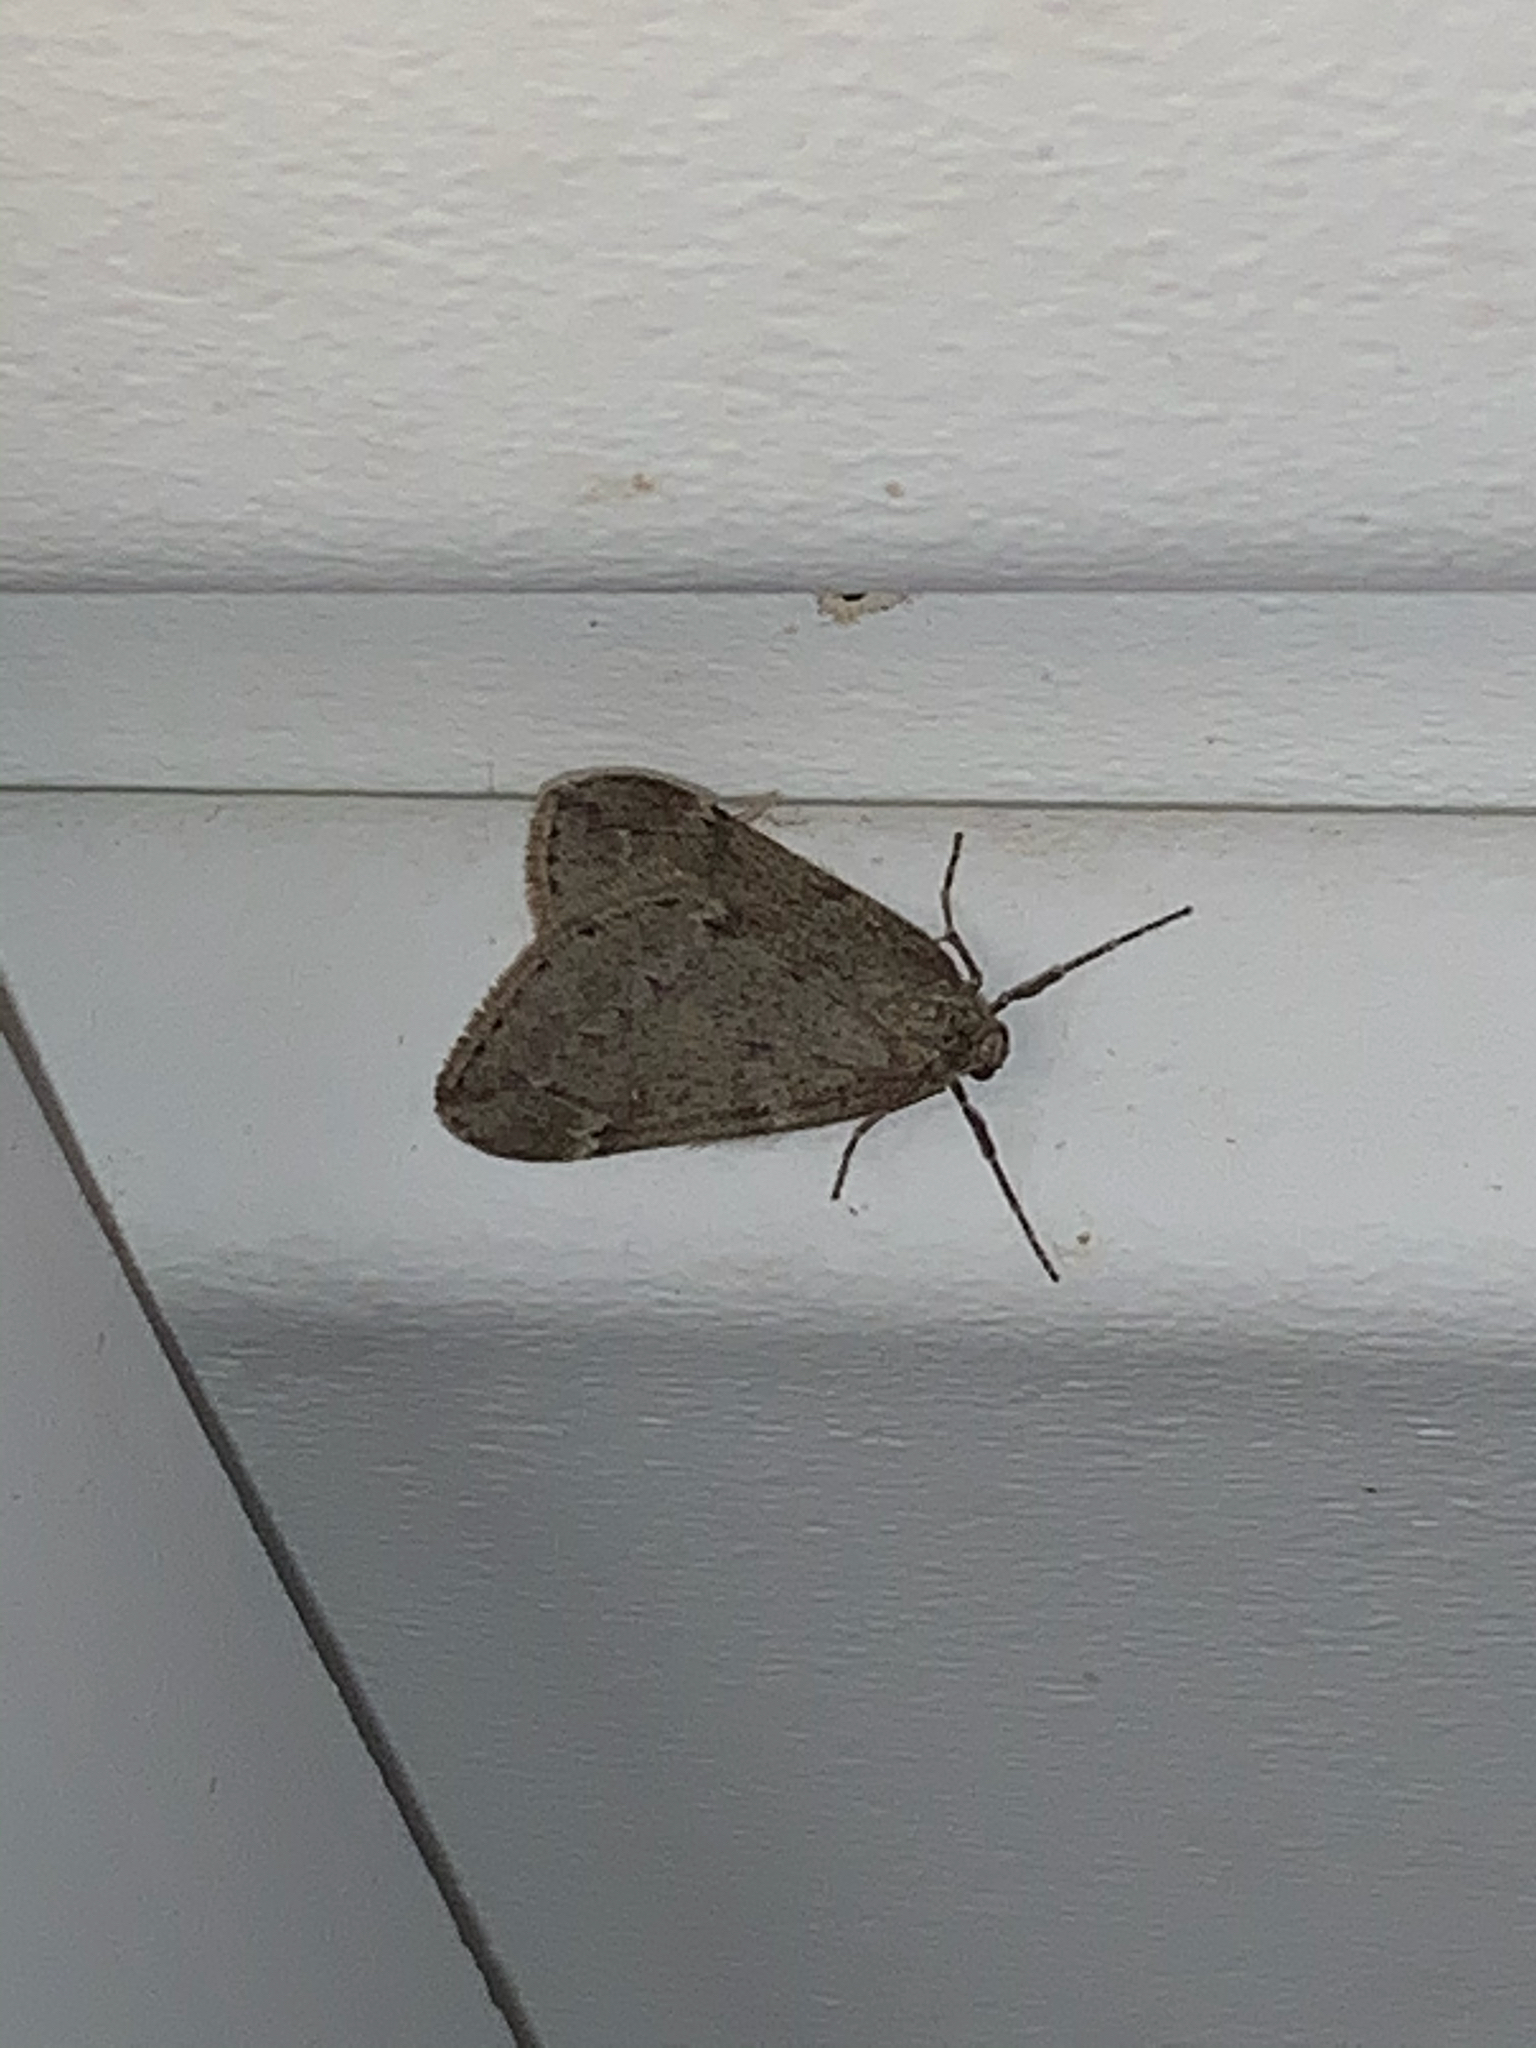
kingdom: Animalia
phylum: Arthropoda
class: Insecta
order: Lepidoptera
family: Geometridae
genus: Alsophila
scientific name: Alsophila pometaria
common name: Fall cankerworm
